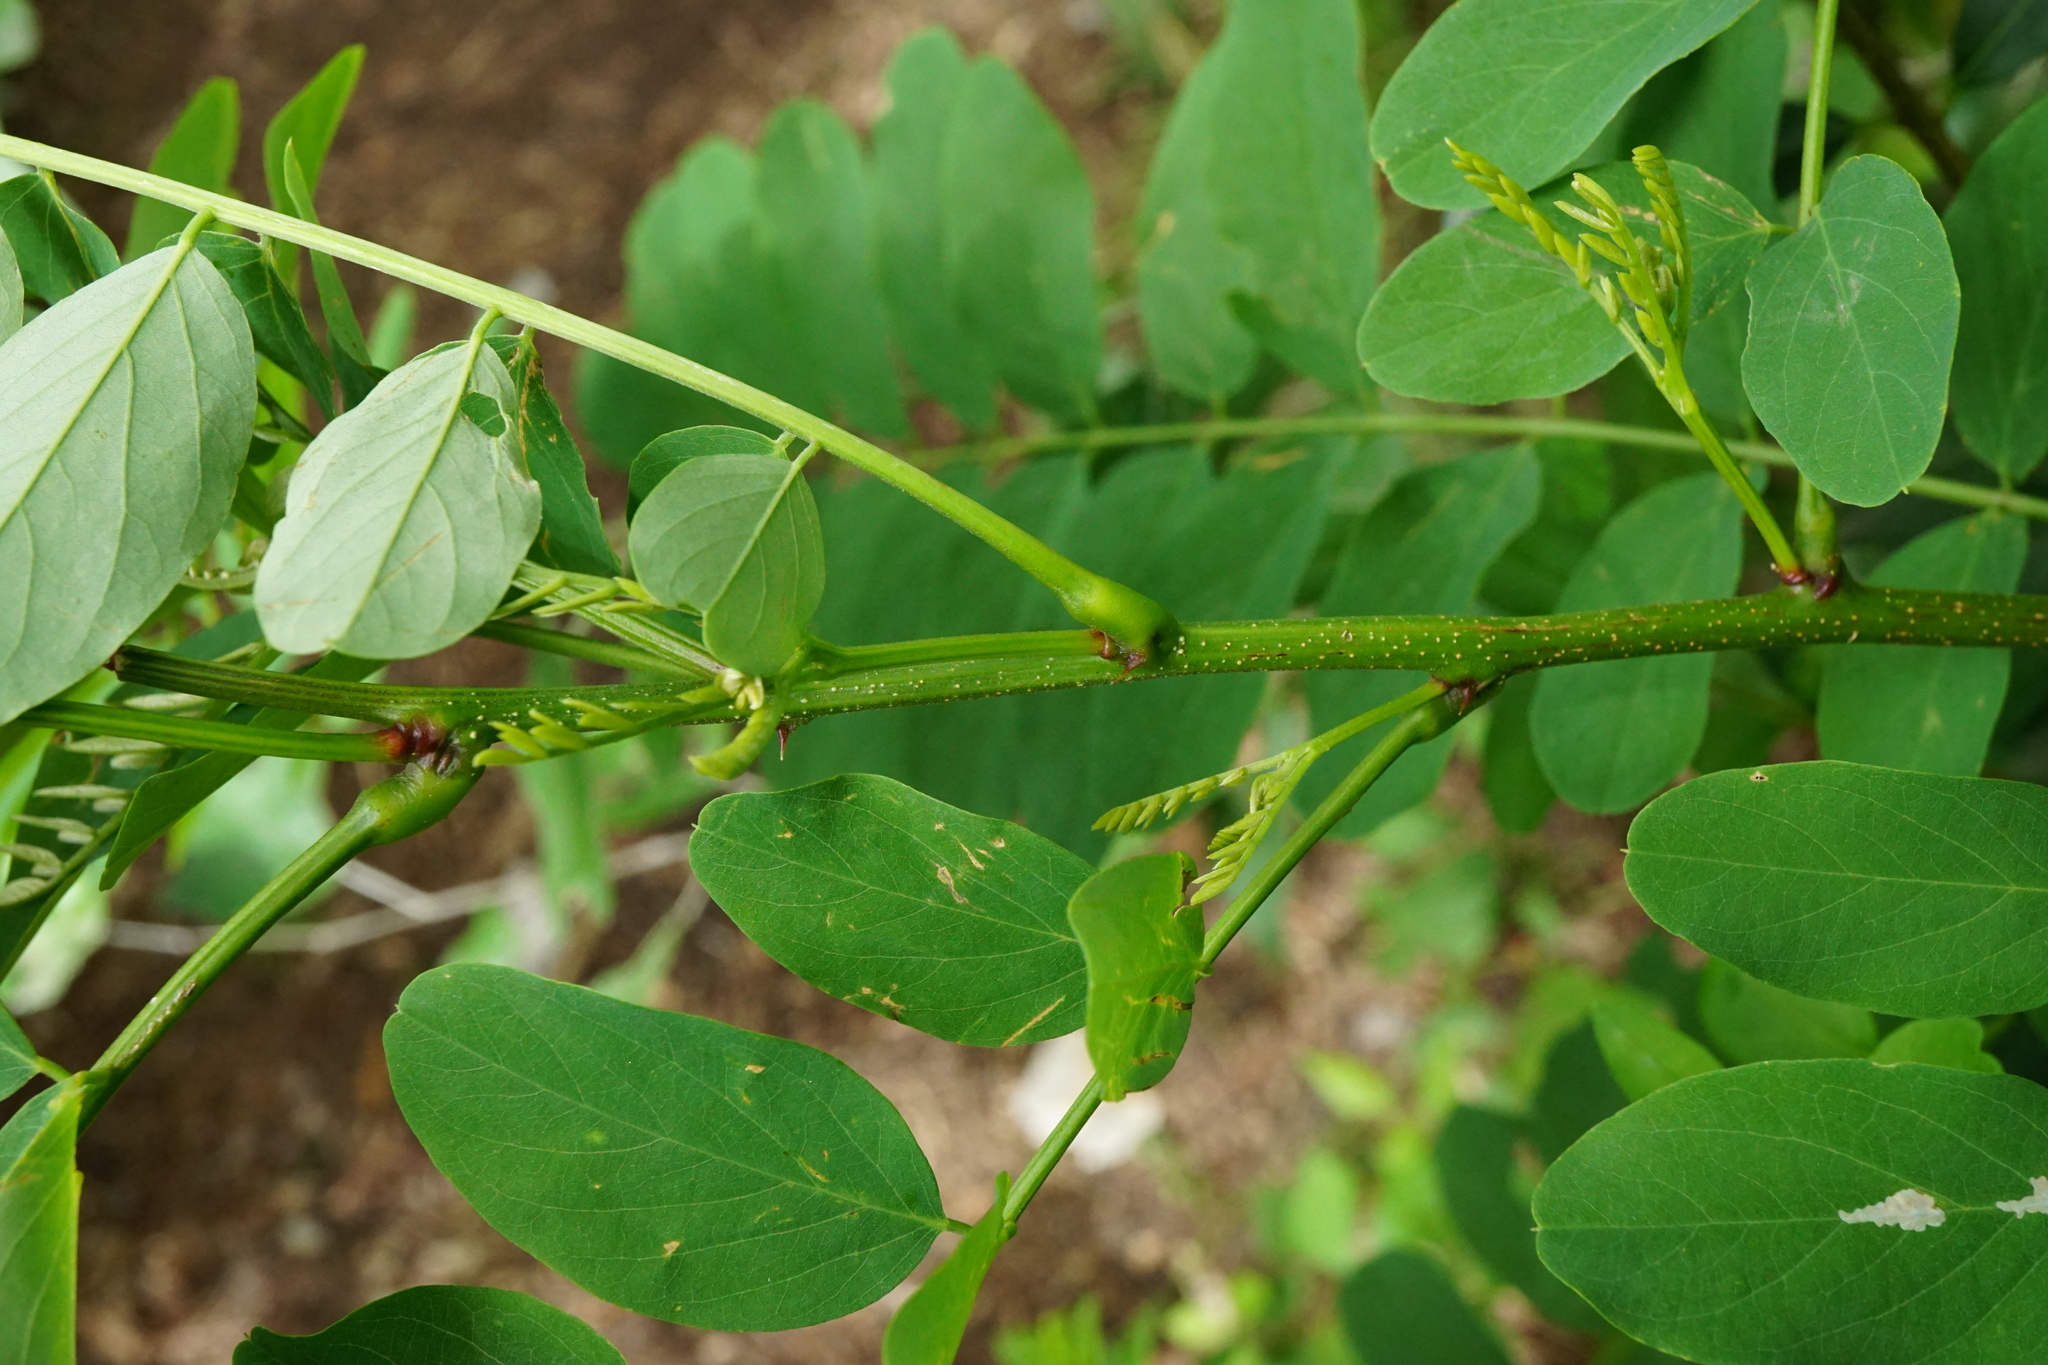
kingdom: Plantae
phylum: Tracheophyta
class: Magnoliopsida
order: Fabales
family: Fabaceae
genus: Robinia
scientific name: Robinia pseudoacacia
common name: Black locust
